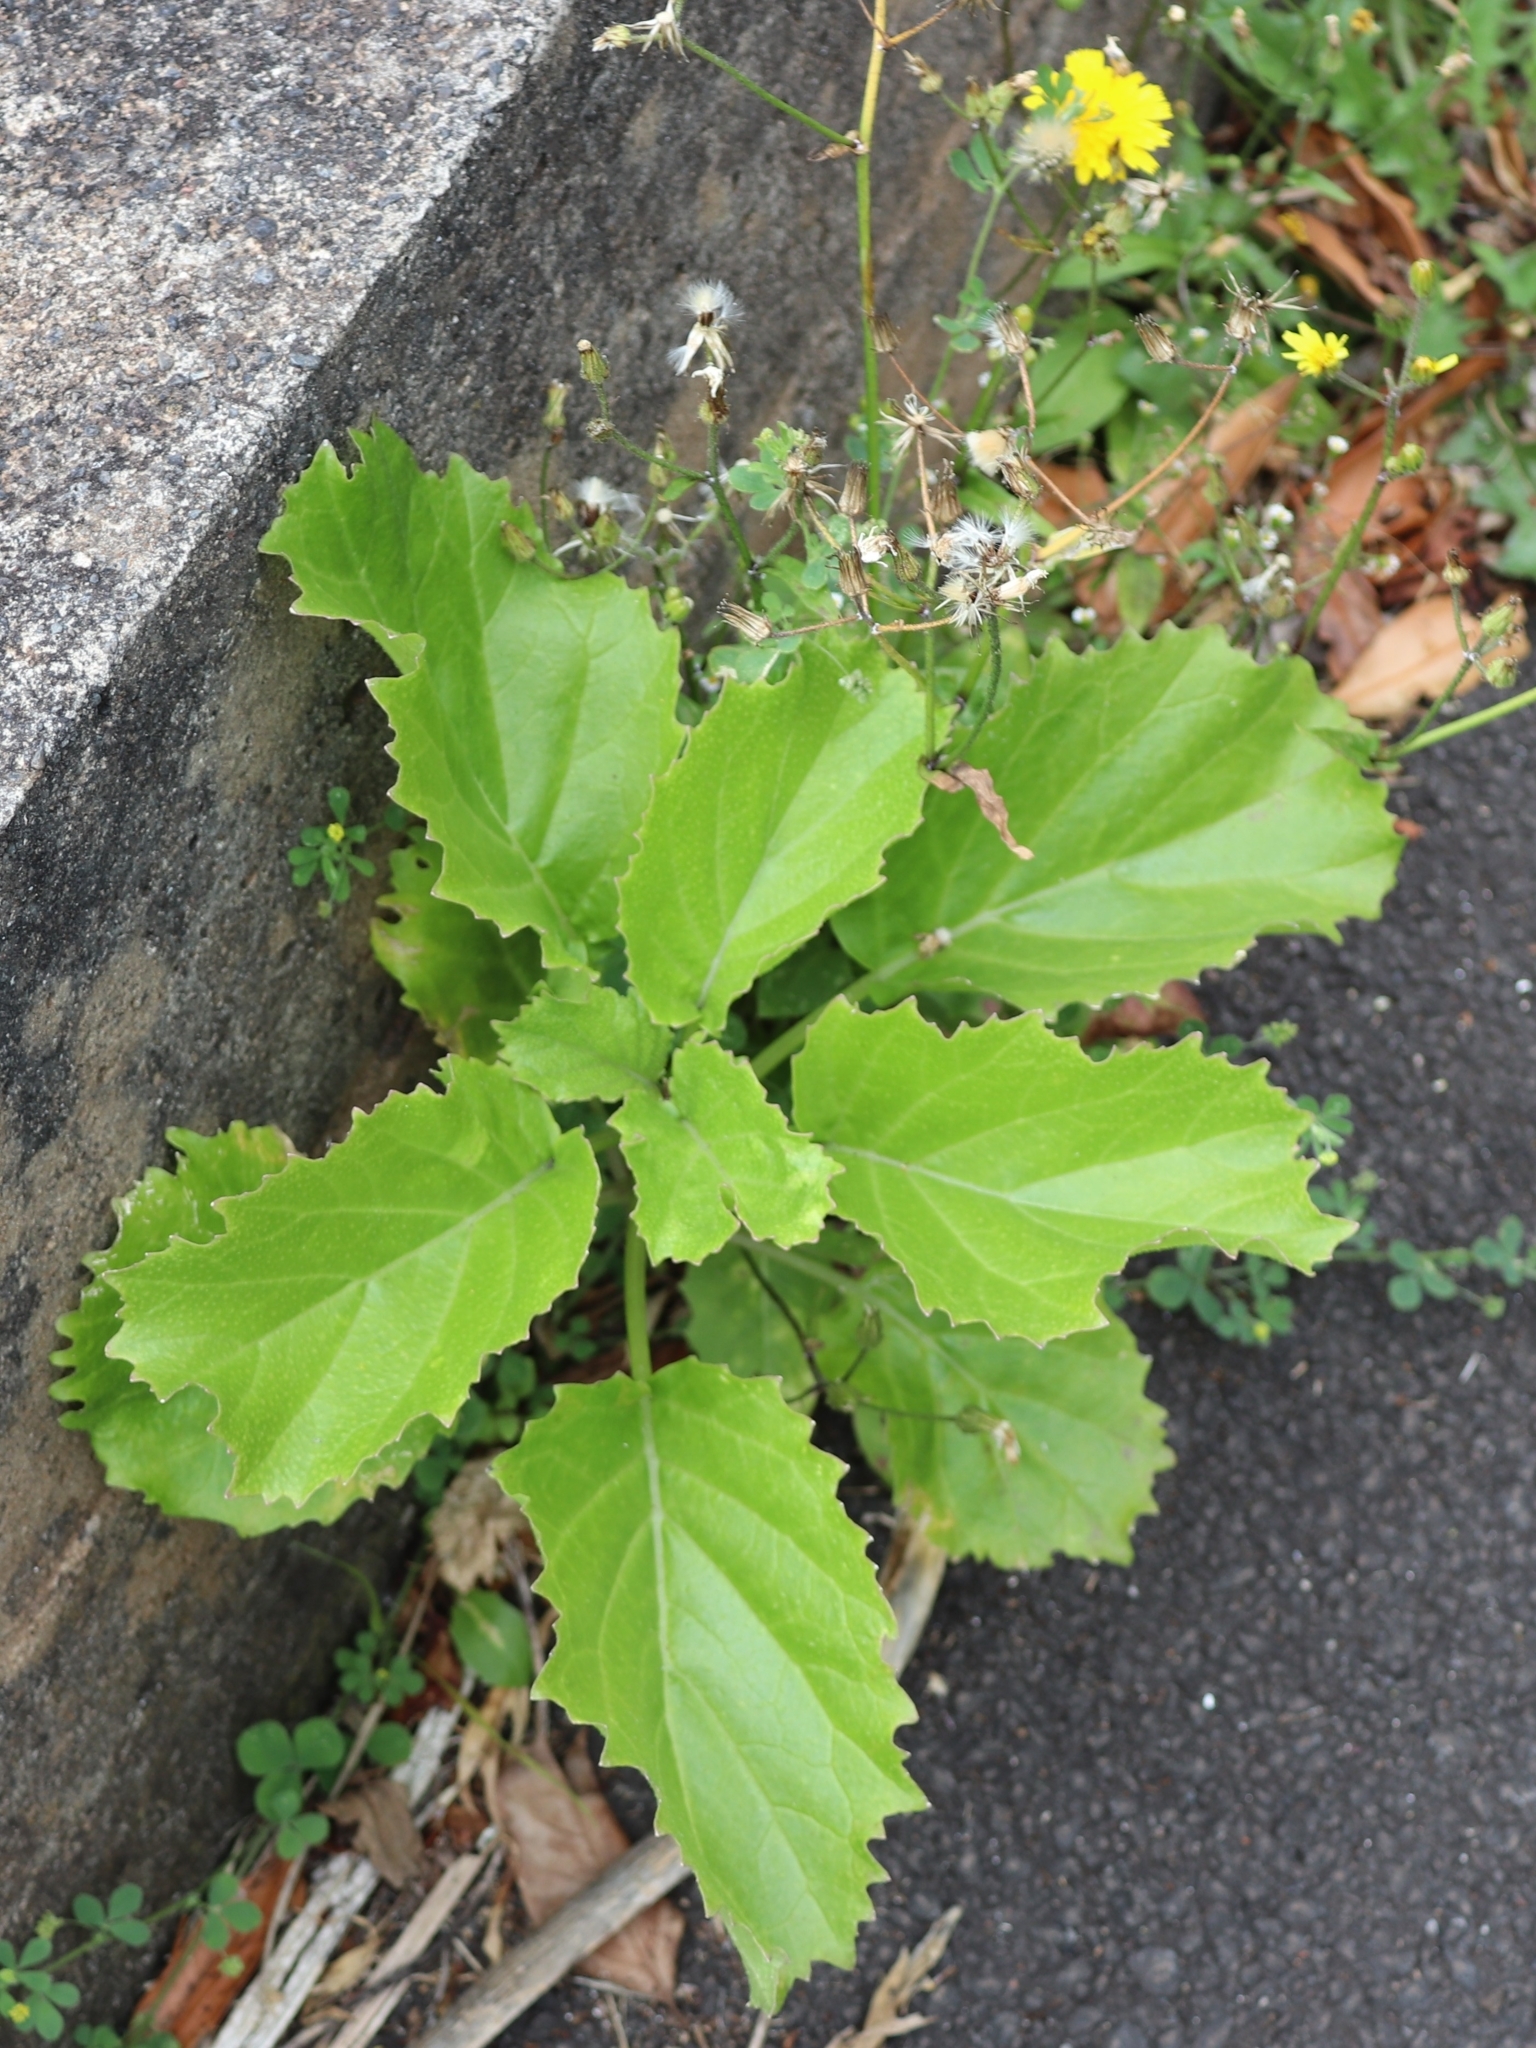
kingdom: Plantae
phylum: Tracheophyta
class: Magnoliopsida
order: Brassicales
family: Brassicaceae
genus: Sinapidendron
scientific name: Sinapidendron rupestre
